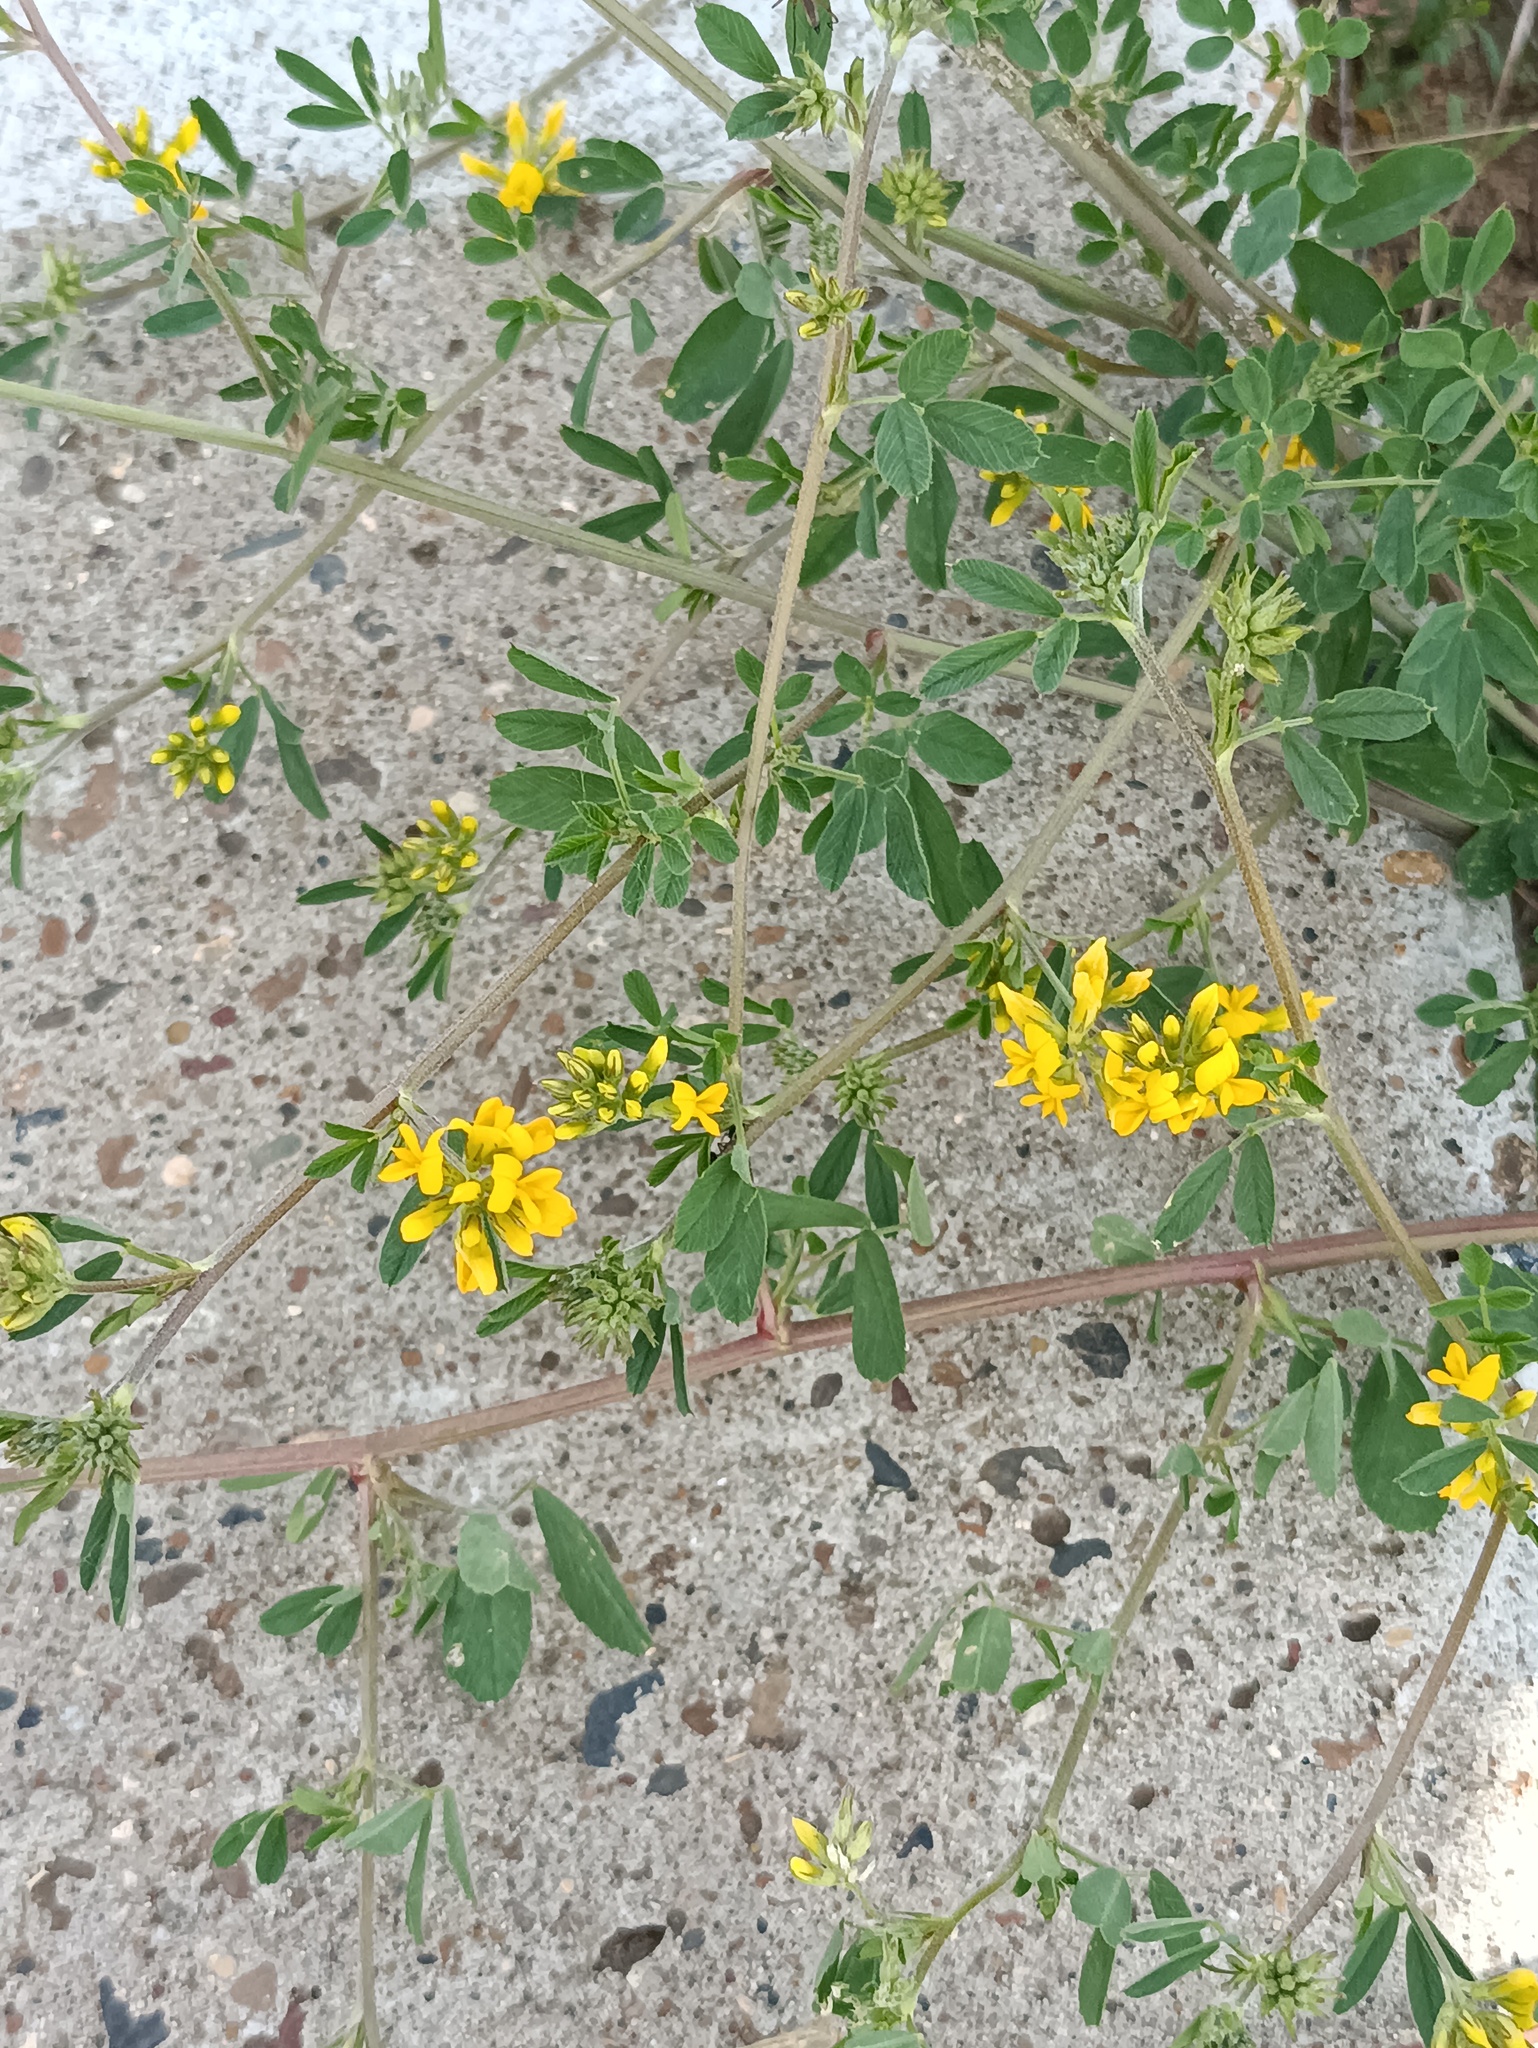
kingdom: Plantae
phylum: Tracheophyta
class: Magnoliopsida
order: Fabales
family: Fabaceae
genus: Medicago
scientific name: Medicago falcata
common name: Sickle medick
